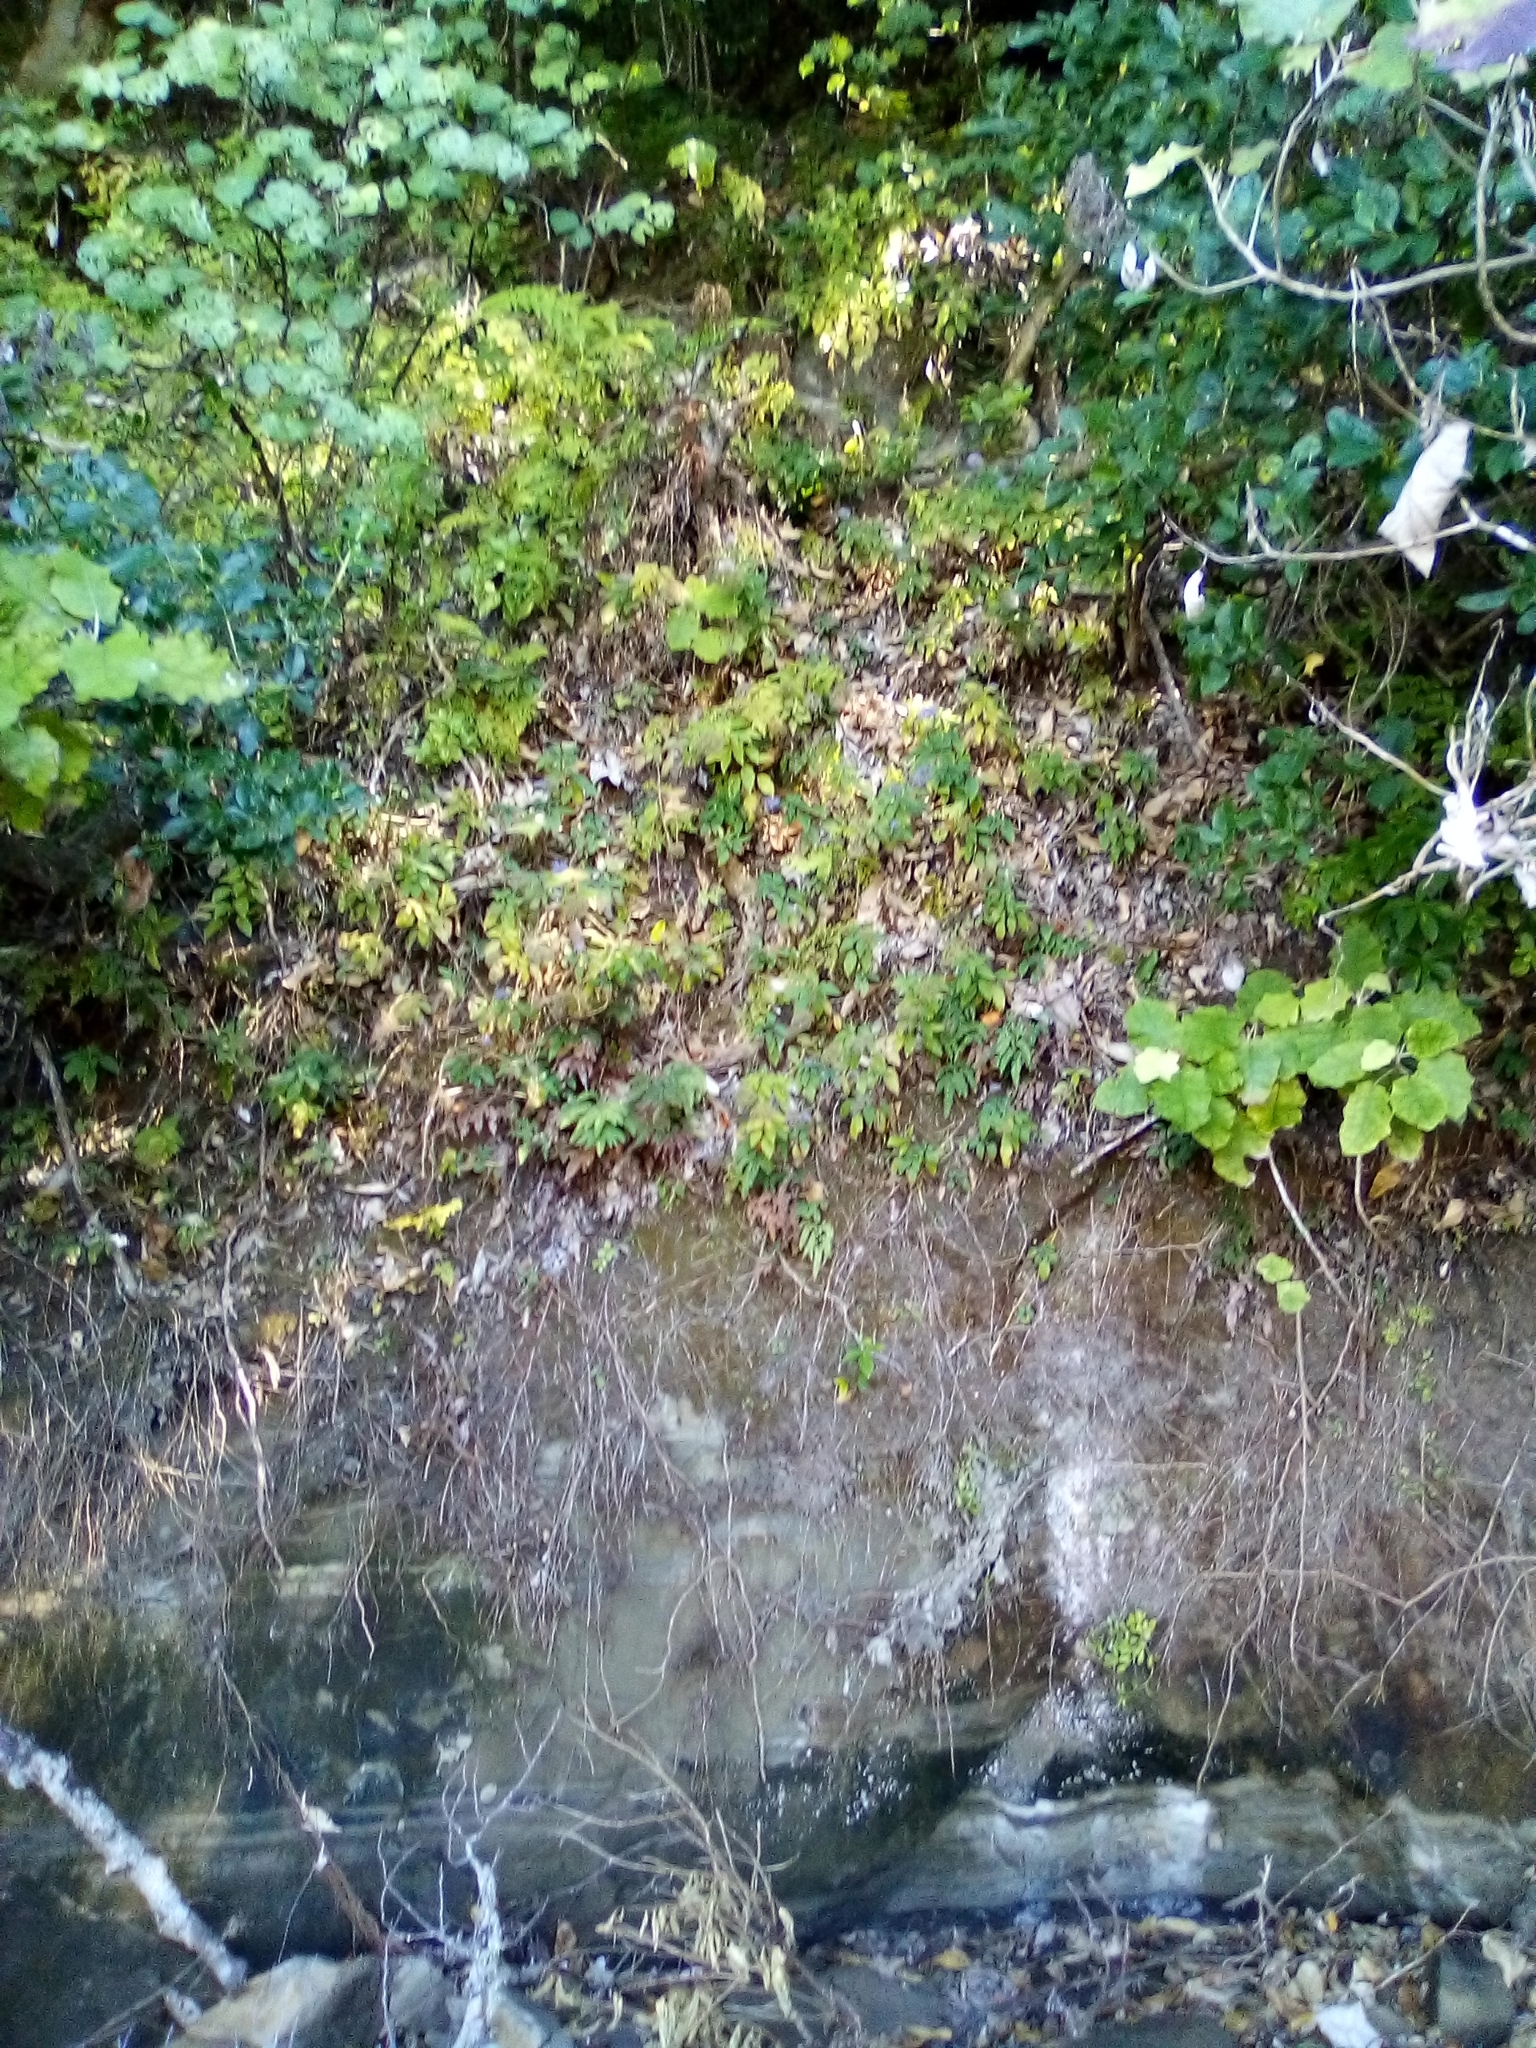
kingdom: Plantae
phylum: Tracheophyta
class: Magnoliopsida
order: Asterales
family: Campanulaceae
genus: Trachelium
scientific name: Trachelium caeruleum
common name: Throatwort
